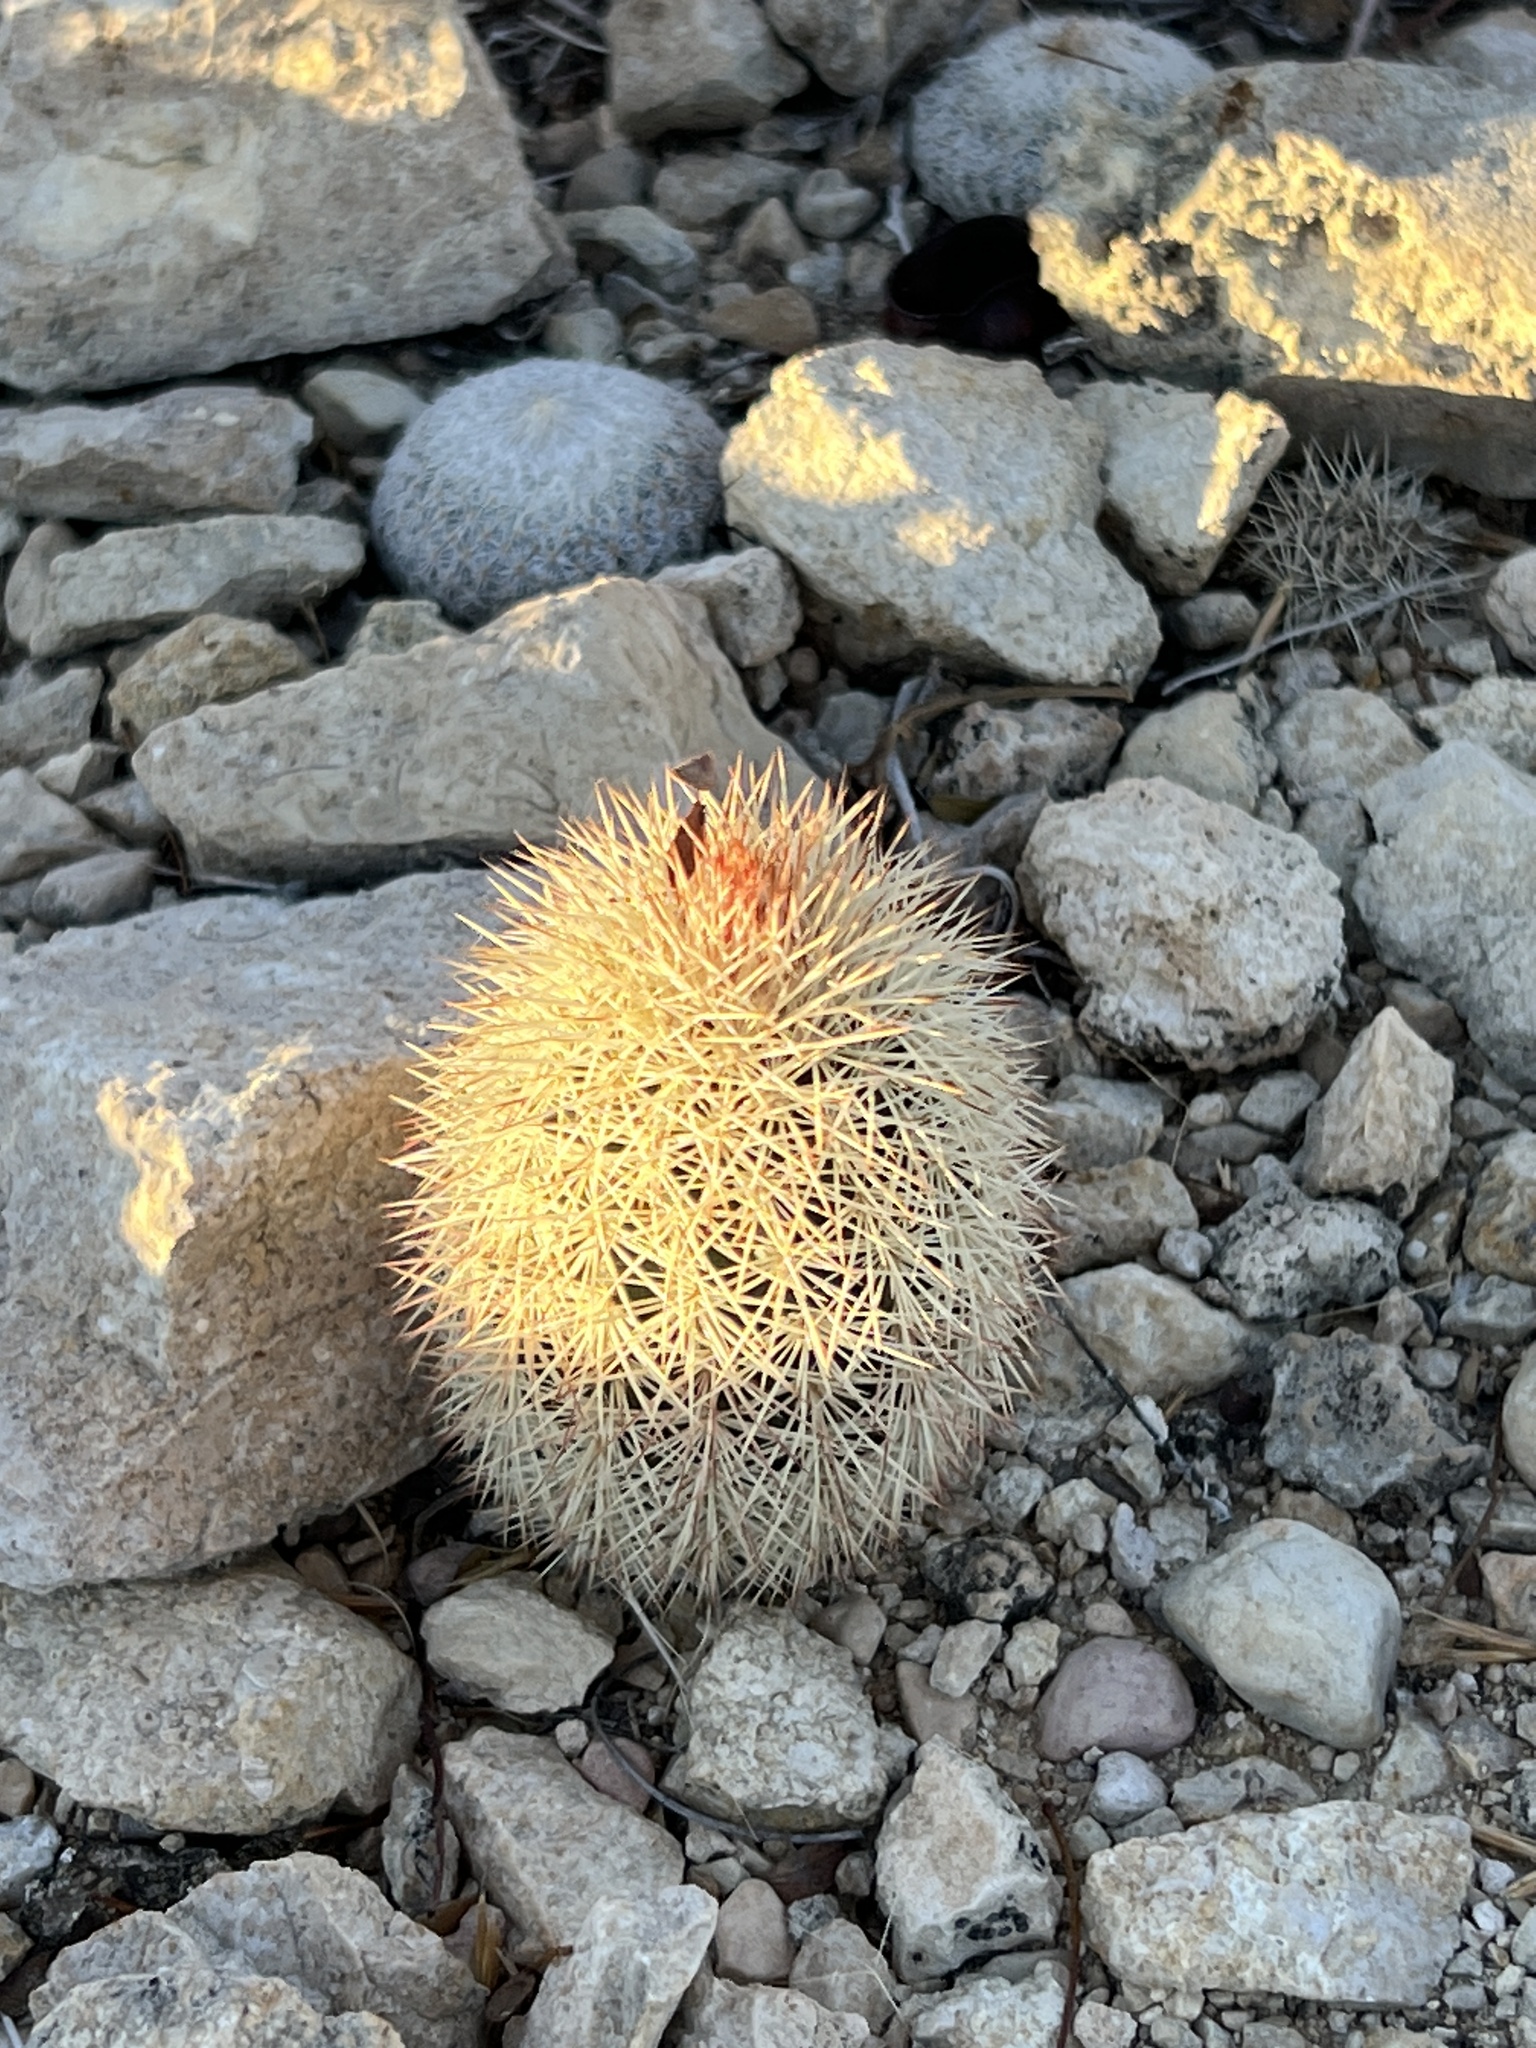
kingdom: Plantae
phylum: Tracheophyta
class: Magnoliopsida
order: Caryophyllales
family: Cactaceae
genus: Echinocereus
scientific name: Echinocereus dasyacanthus
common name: Spiny hedgehog cactus
